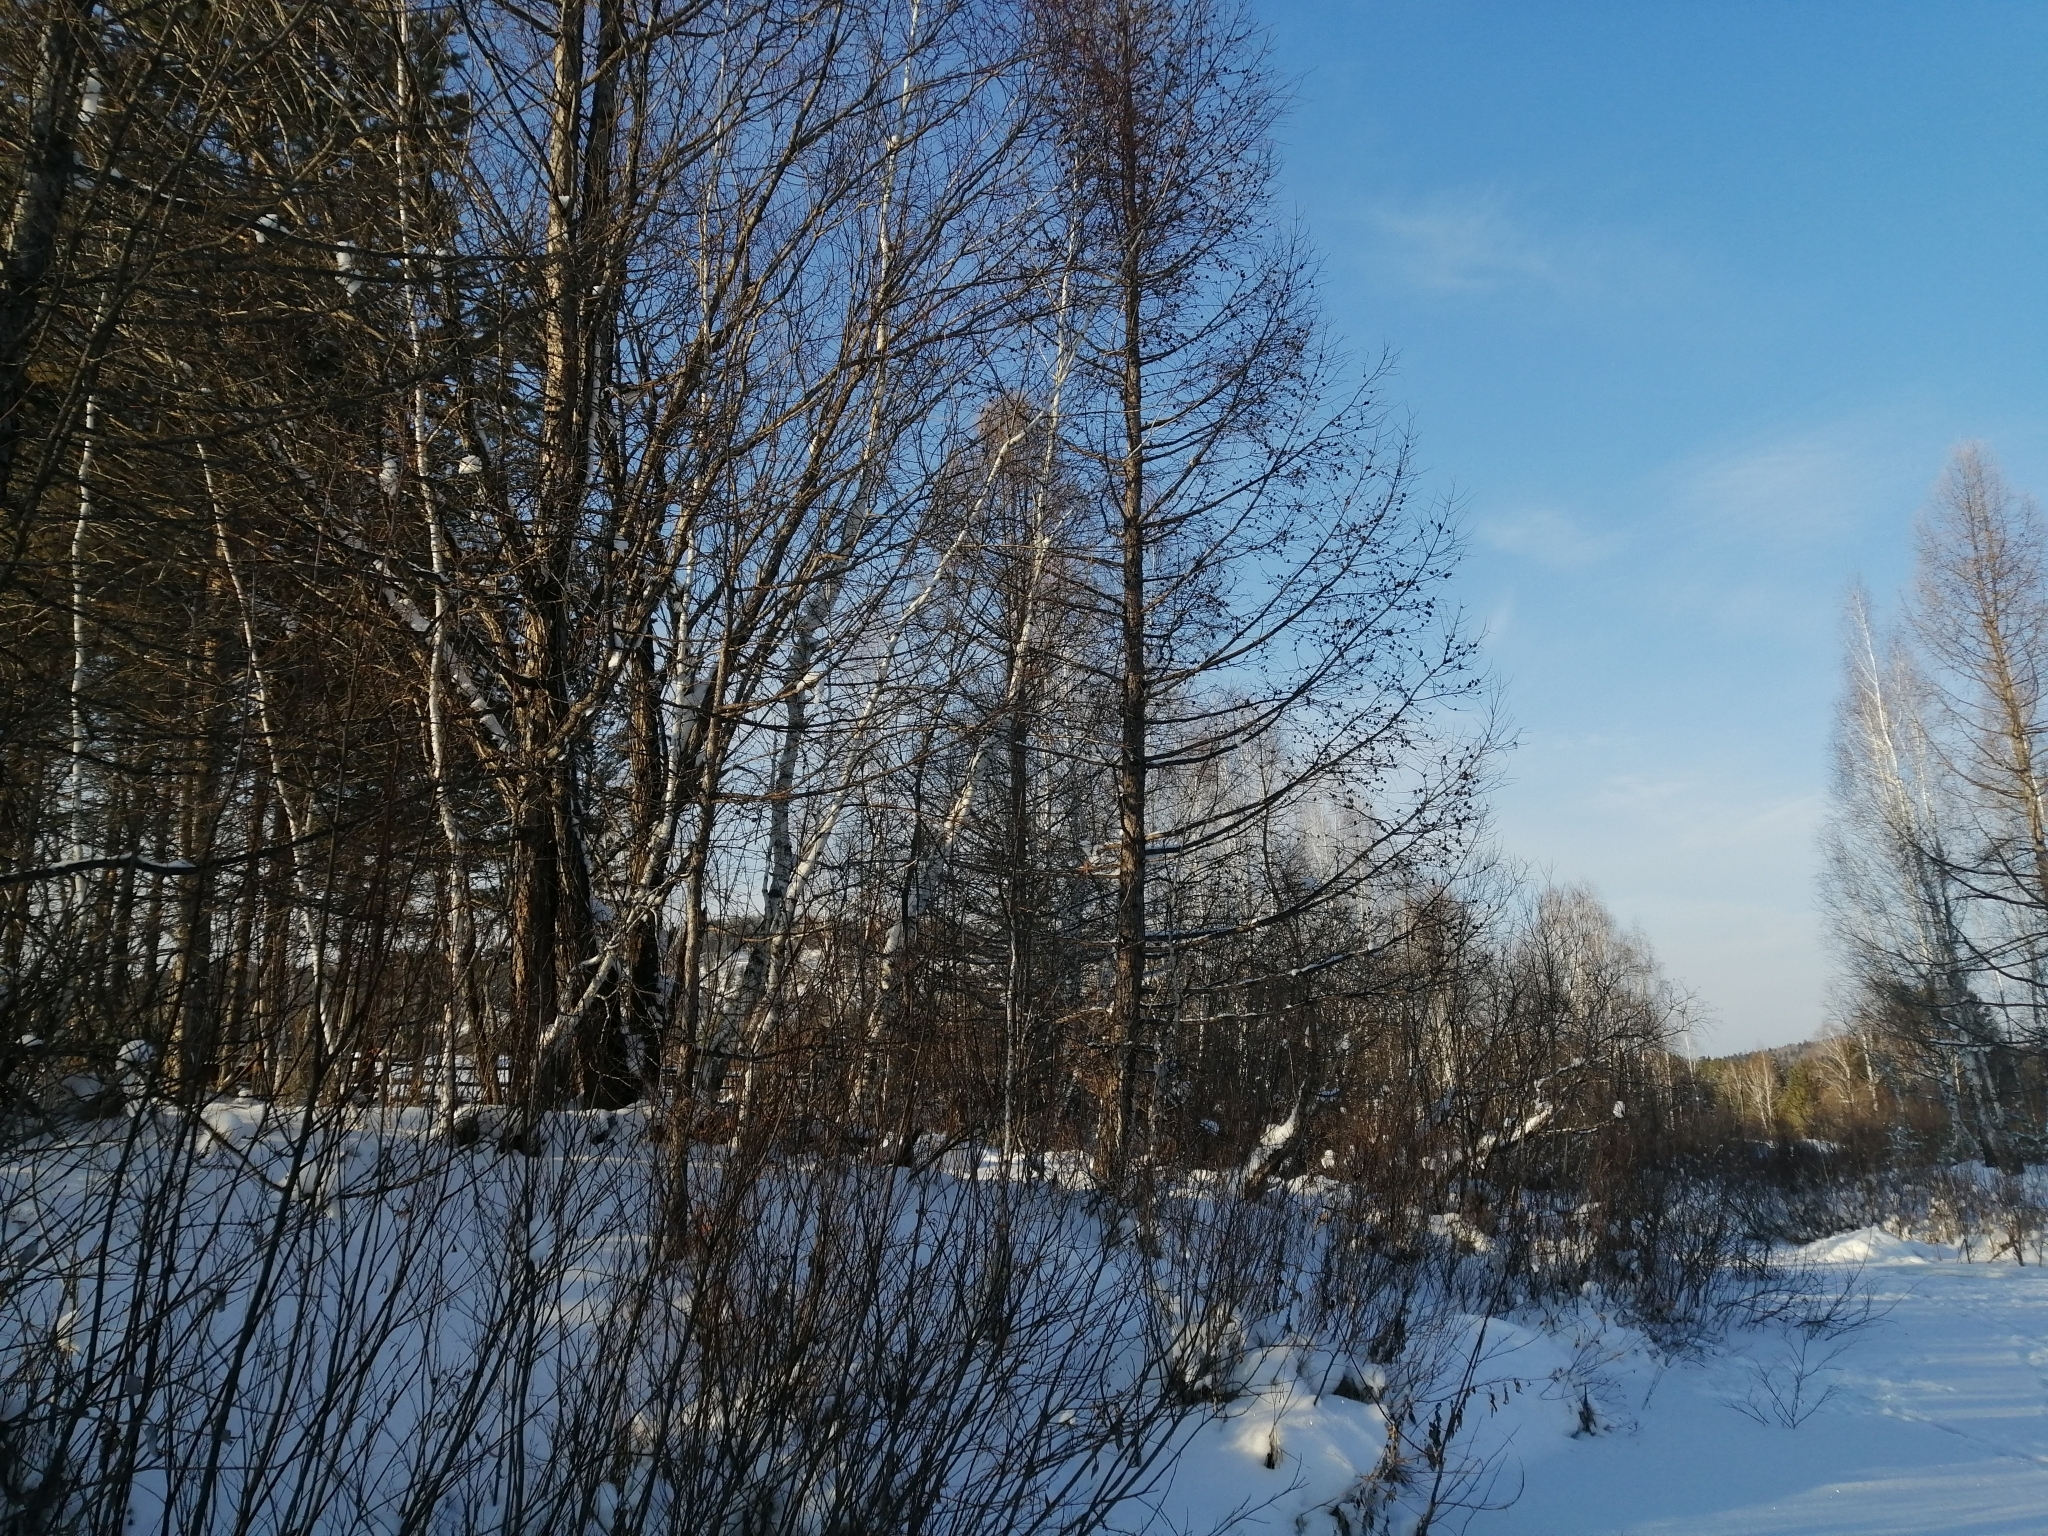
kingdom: Plantae
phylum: Tracheophyta
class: Pinopsida
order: Pinales
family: Pinaceae
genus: Larix
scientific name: Larix sibirica
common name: Siberian larch
